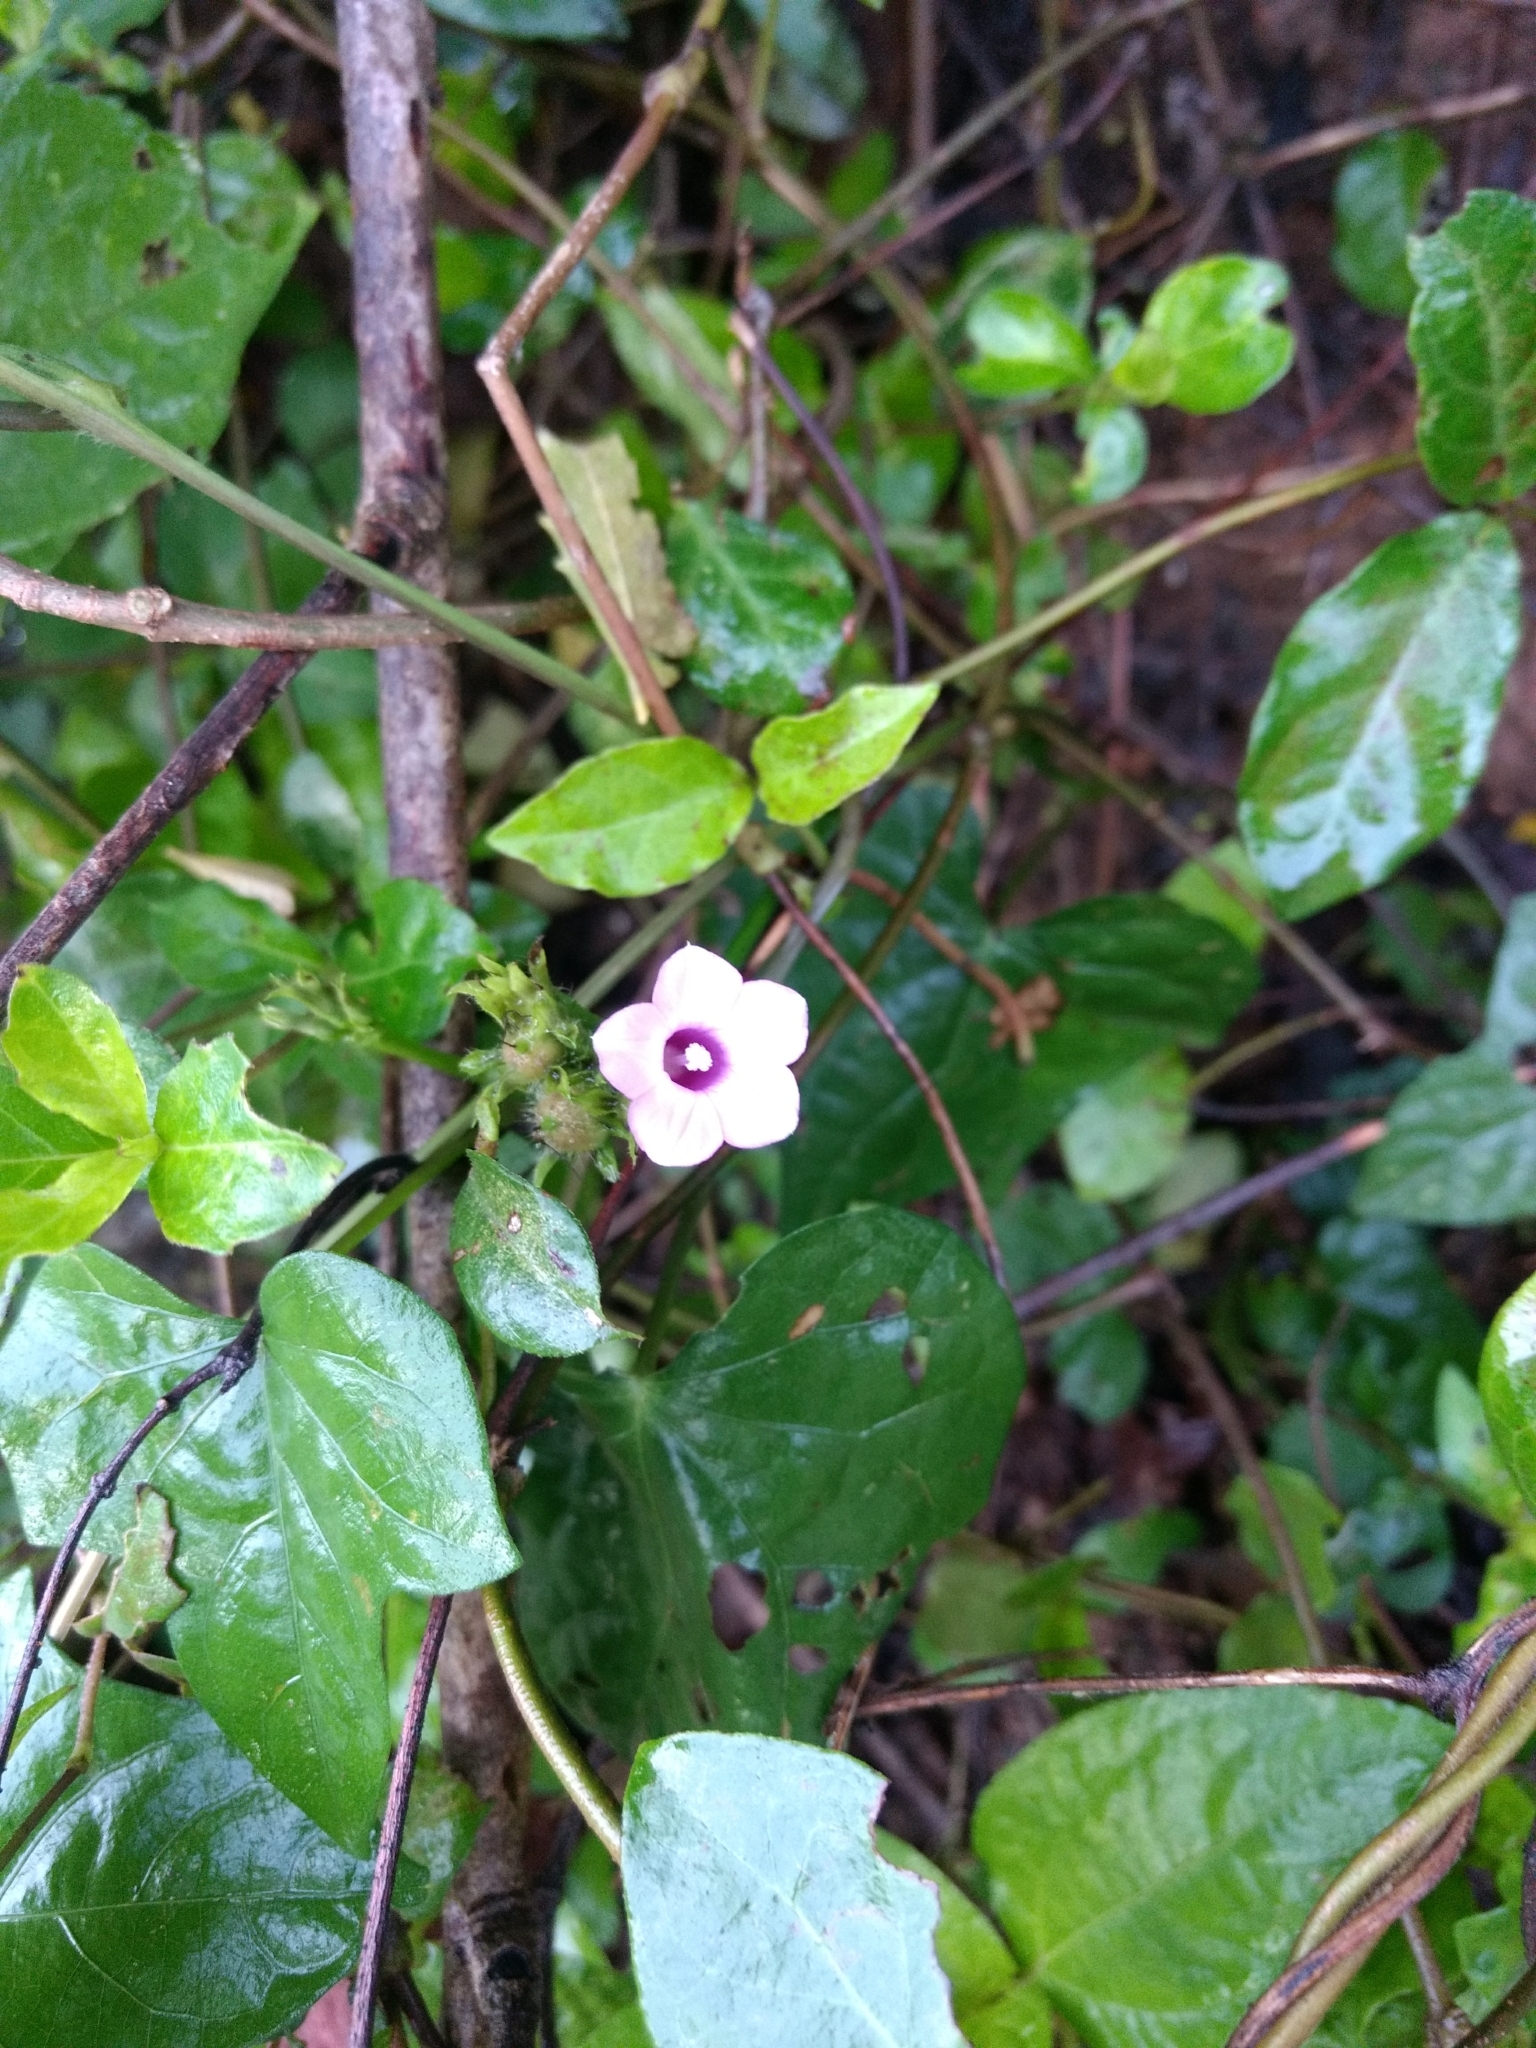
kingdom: Plantae
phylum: Tracheophyta
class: Magnoliopsida
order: Solanales
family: Convolvulaceae
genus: Ipomoea
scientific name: Ipomoea triloba
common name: Little-bell
